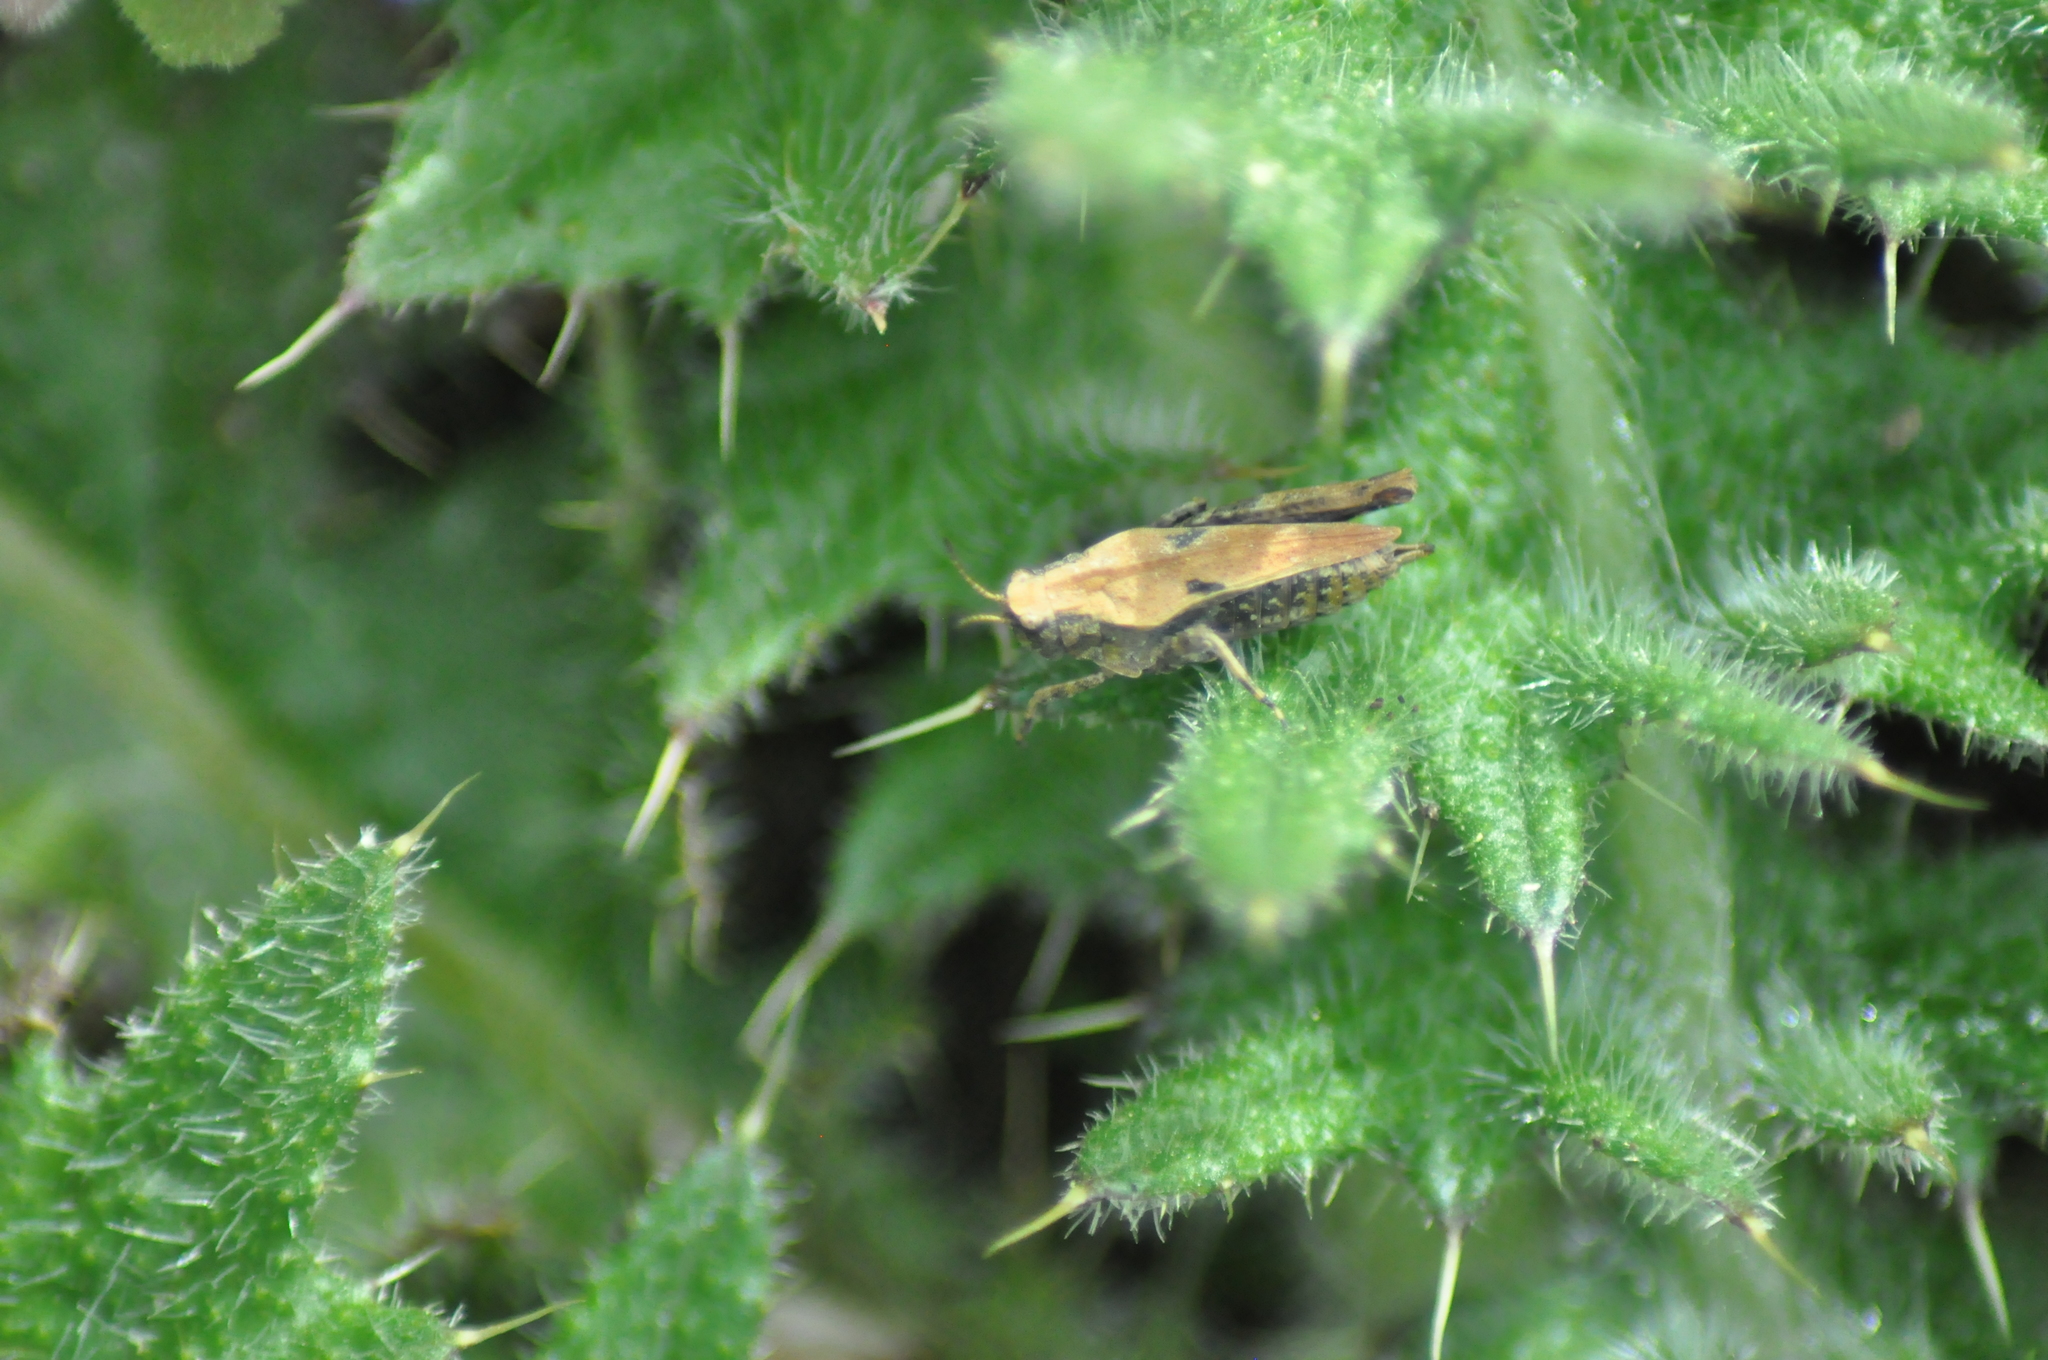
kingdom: Animalia
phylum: Arthropoda
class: Insecta
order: Orthoptera
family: Tetrigidae
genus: Tetrix
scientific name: Tetrix undulata
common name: Common groundhopper
